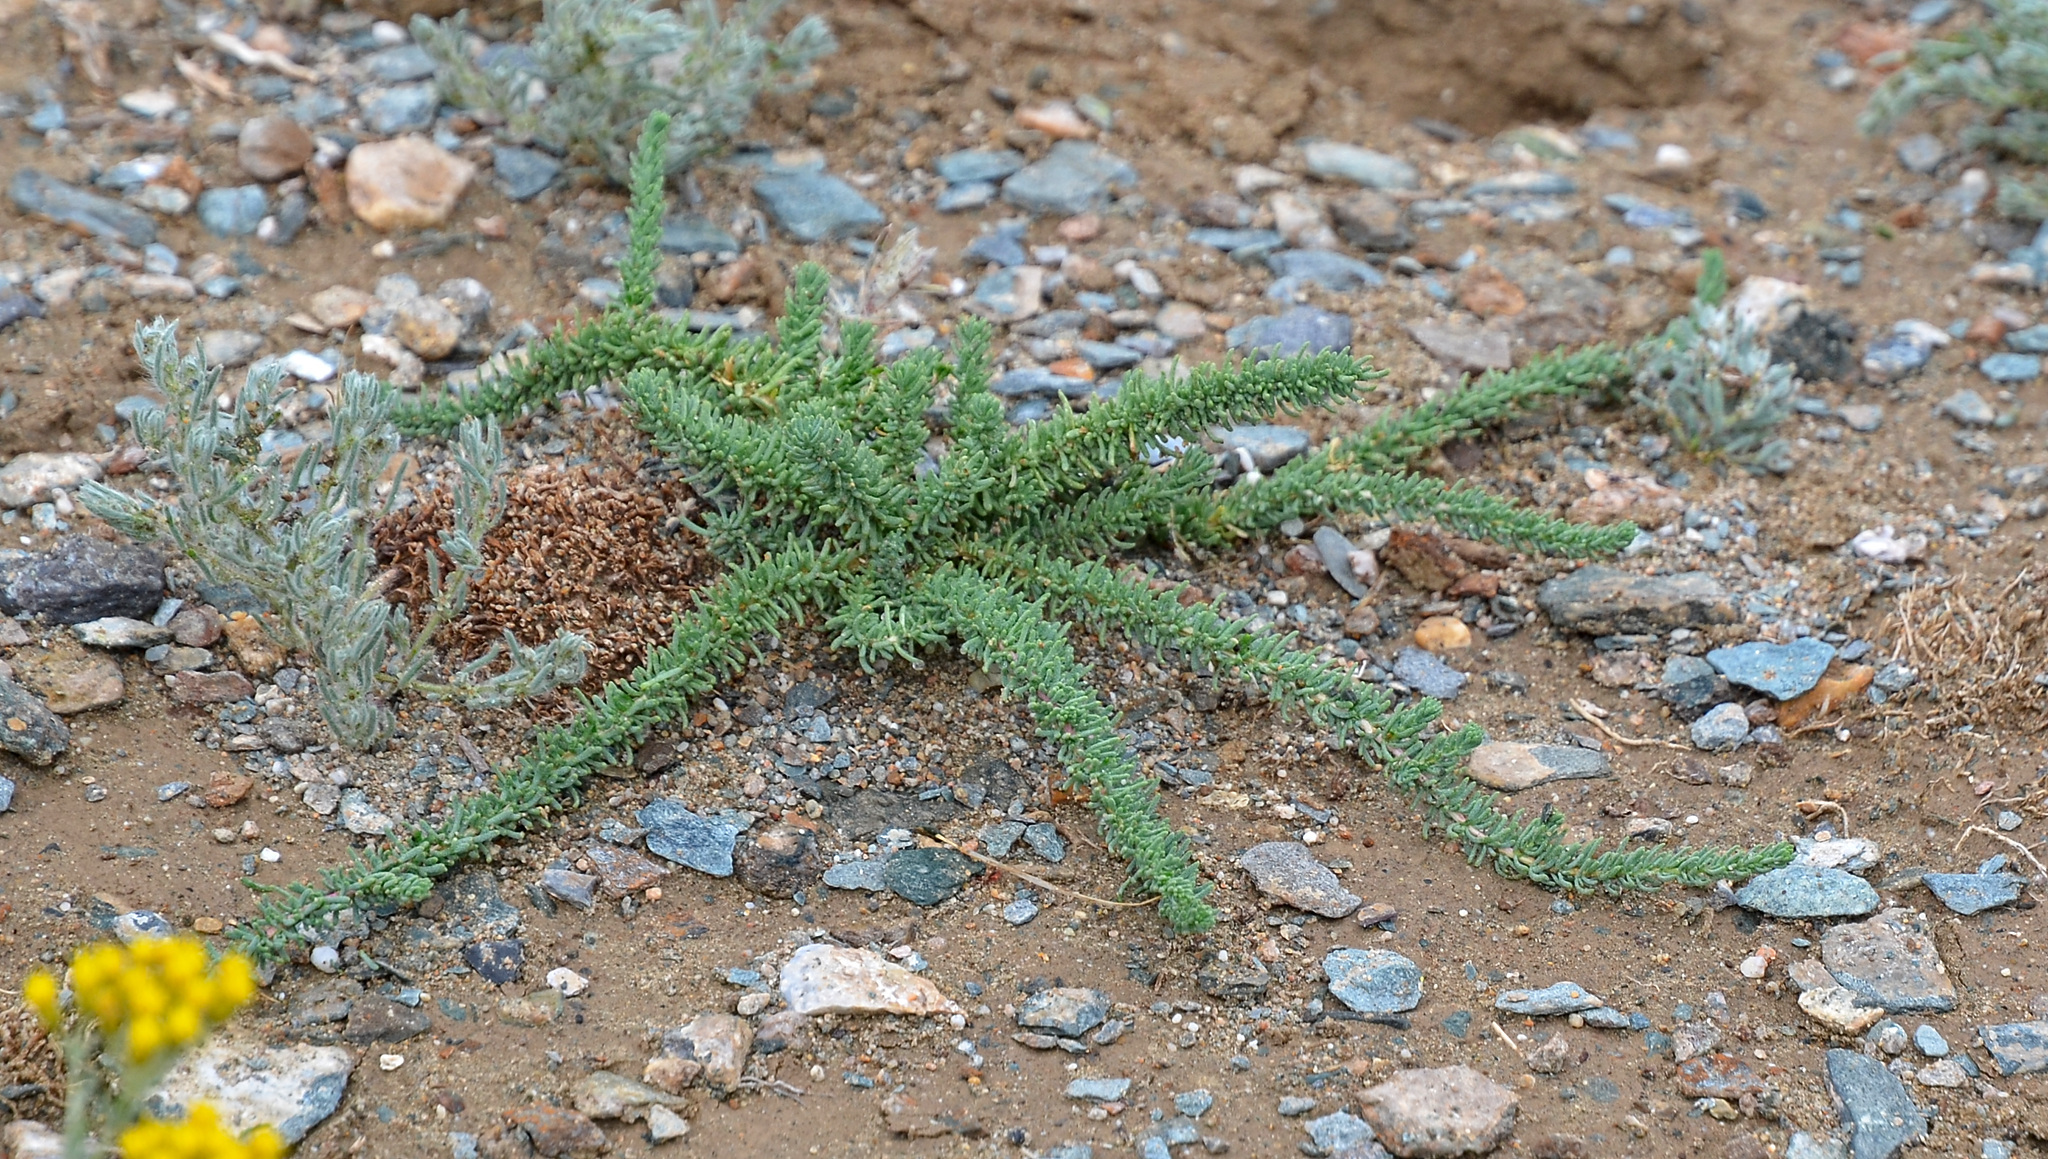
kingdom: Plantae
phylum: Tracheophyta
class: Magnoliopsida
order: Caryophyllales
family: Amaranthaceae
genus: Bassia
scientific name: Bassia prostrata
